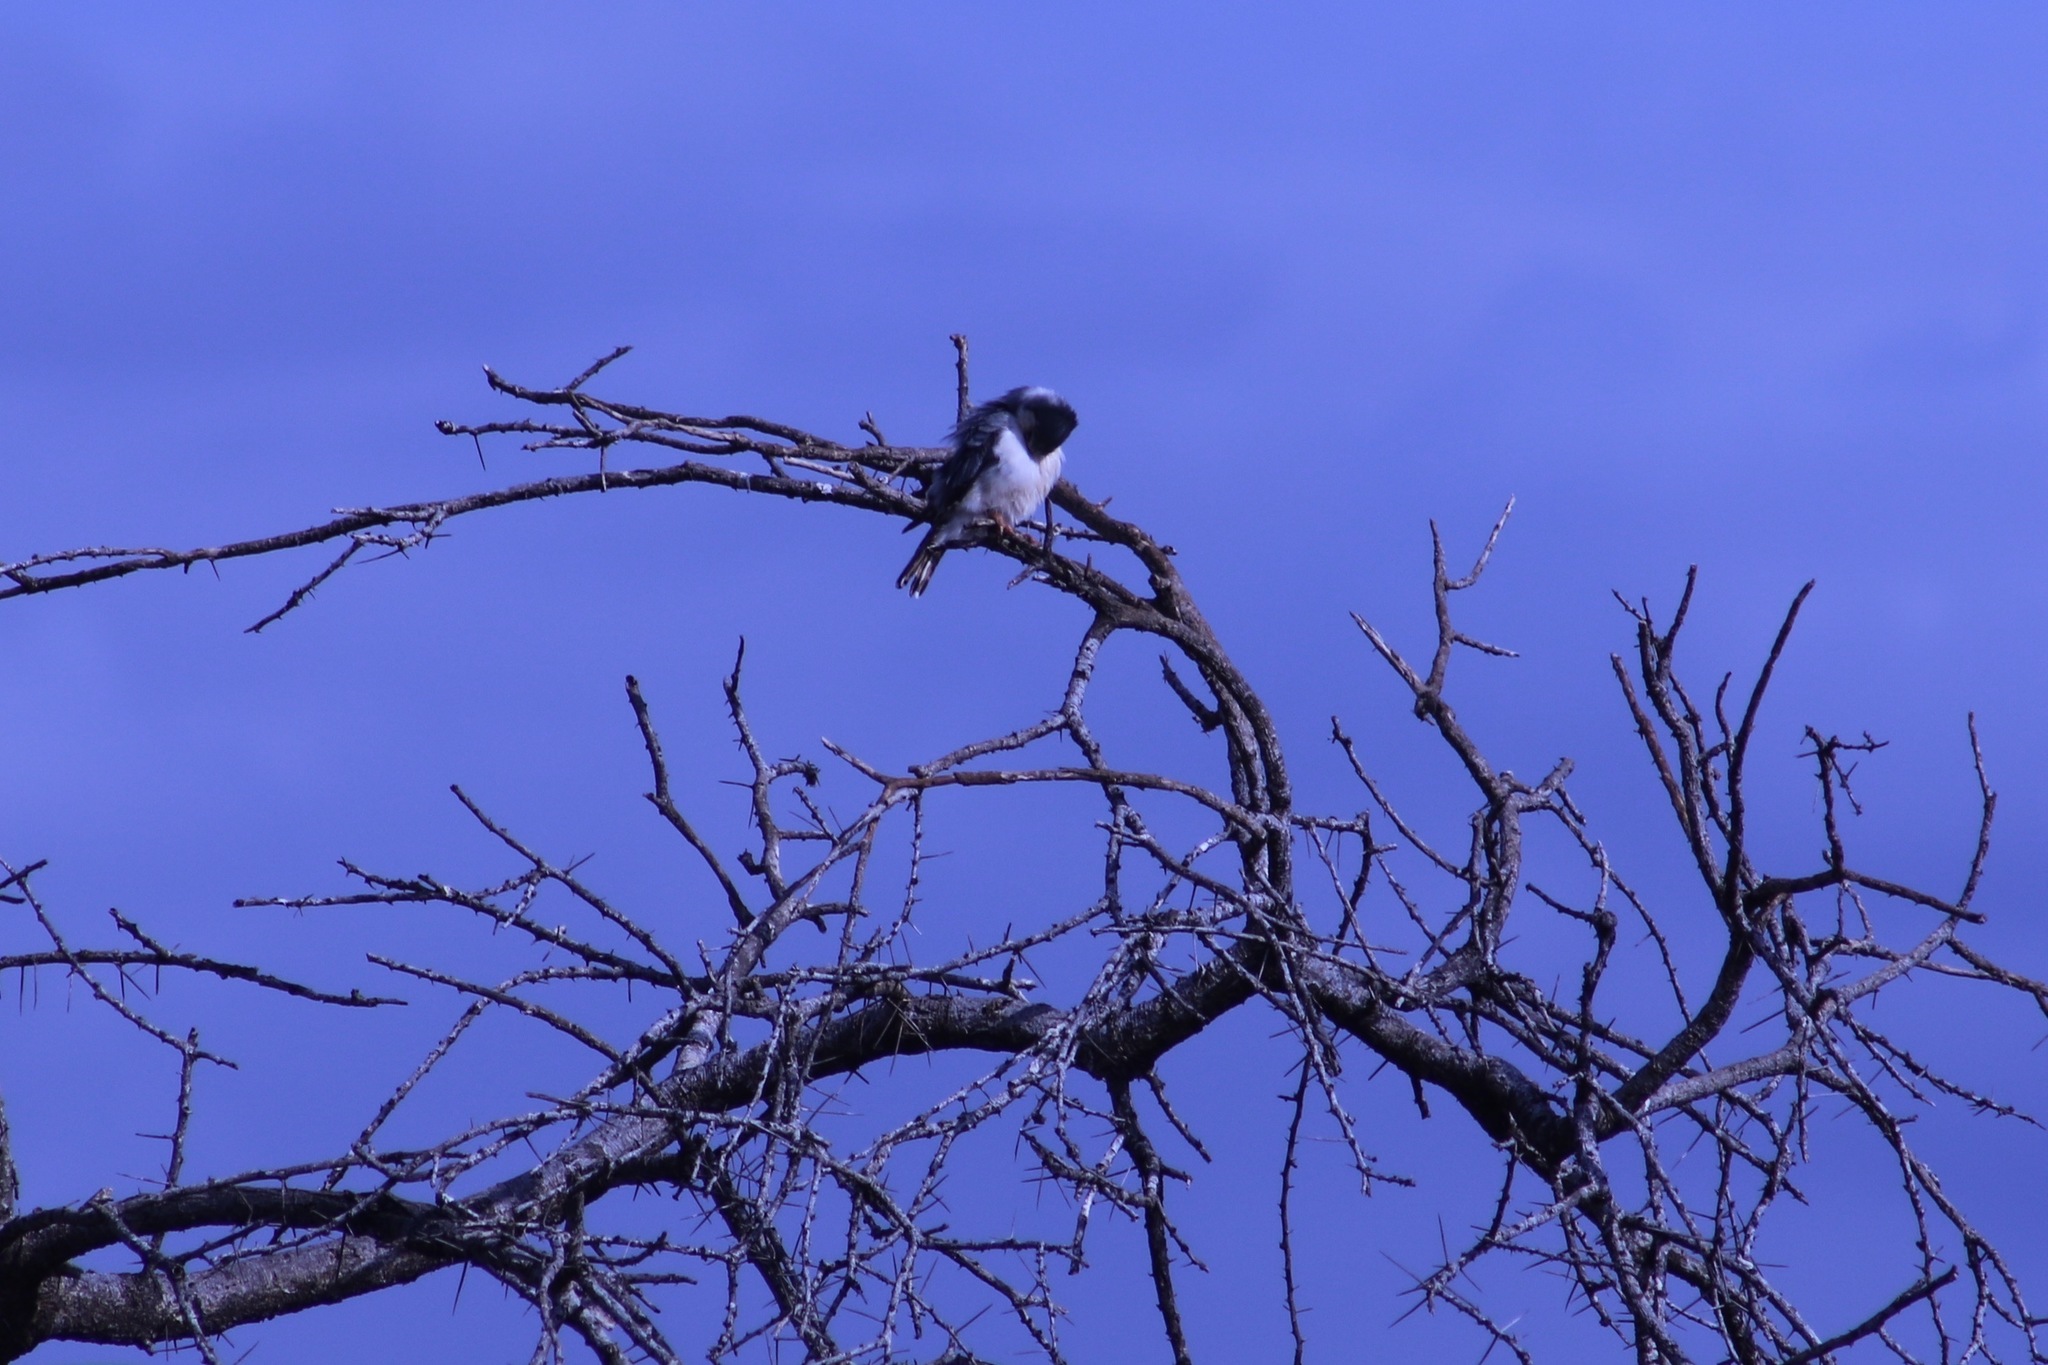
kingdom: Animalia
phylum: Chordata
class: Aves
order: Falconiformes
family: Falconidae
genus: Polihierax
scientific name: Polihierax semitorquatus
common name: Pygmy falcon
